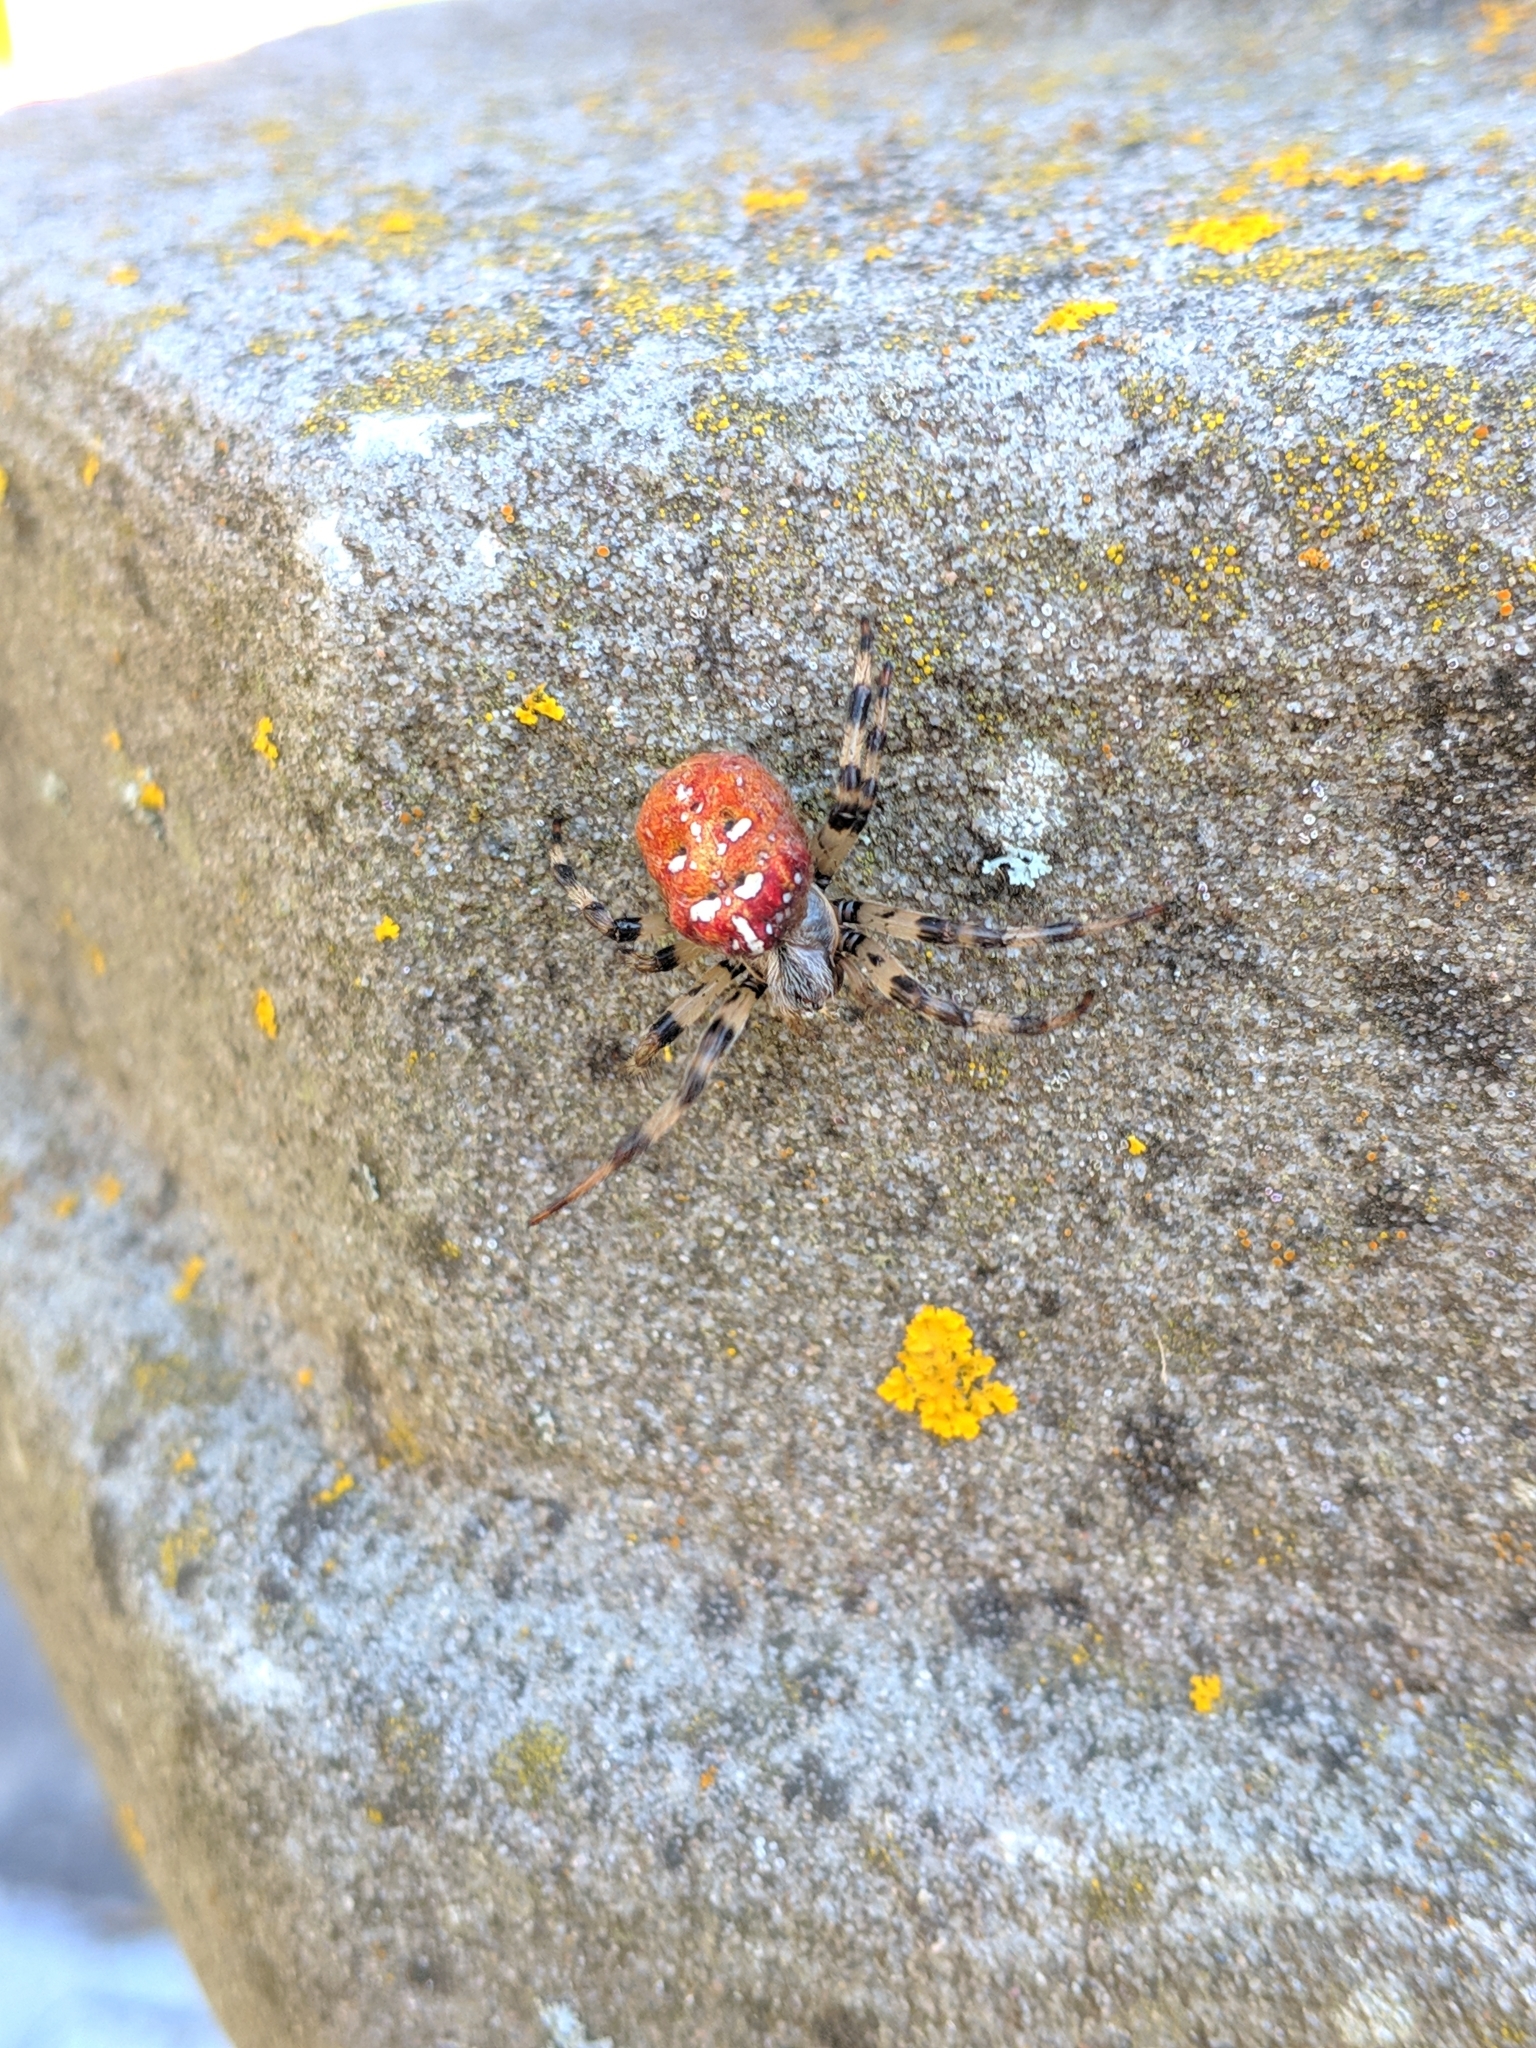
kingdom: Animalia
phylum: Arthropoda
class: Arachnida
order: Araneae
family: Araneidae
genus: Araneus
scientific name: Araneus quadratus
